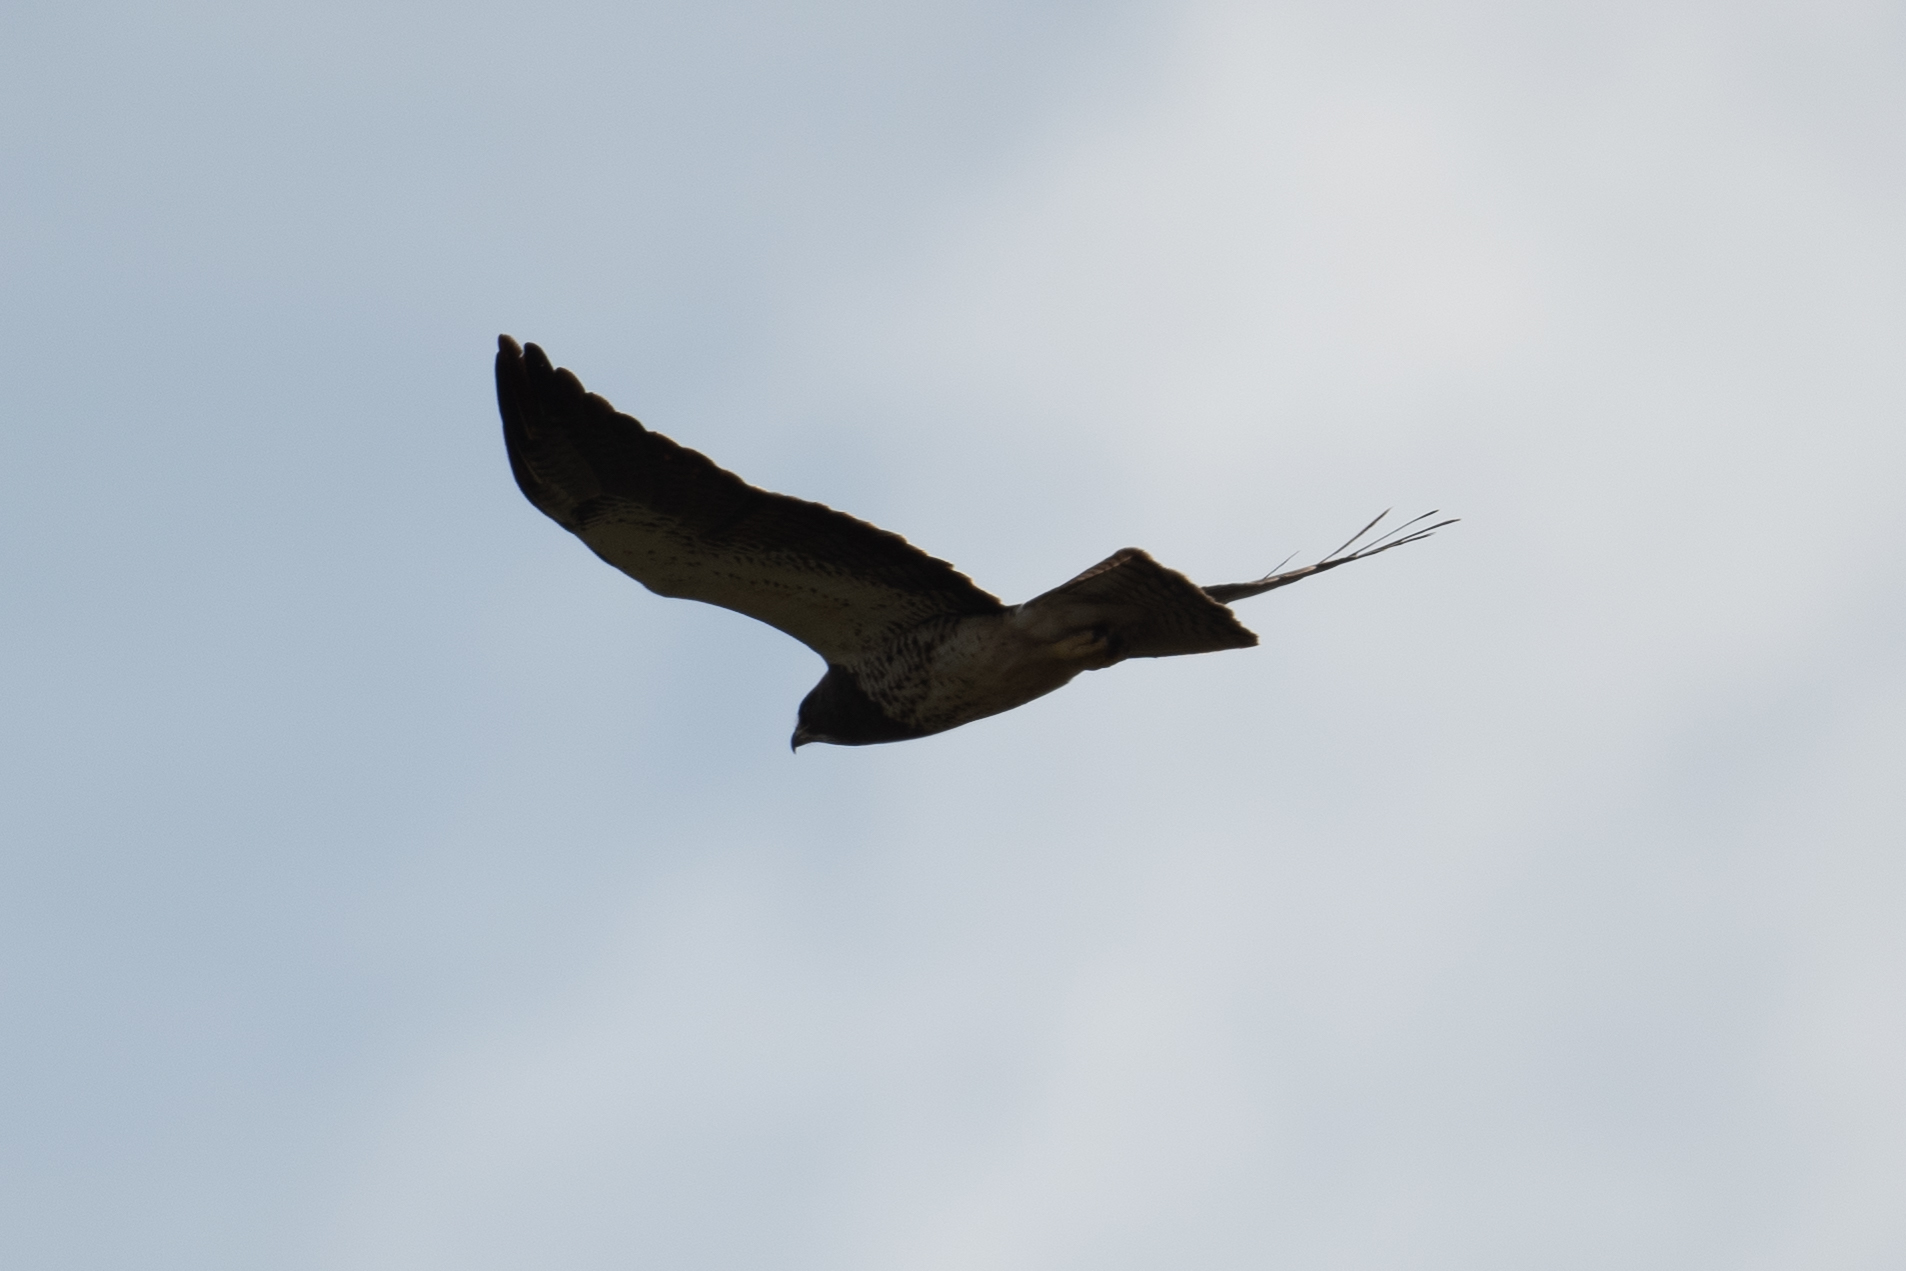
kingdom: Animalia
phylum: Chordata
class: Aves
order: Accipitriformes
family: Accipitridae
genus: Buteo
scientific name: Buteo swainsoni
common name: Swainson's hawk
